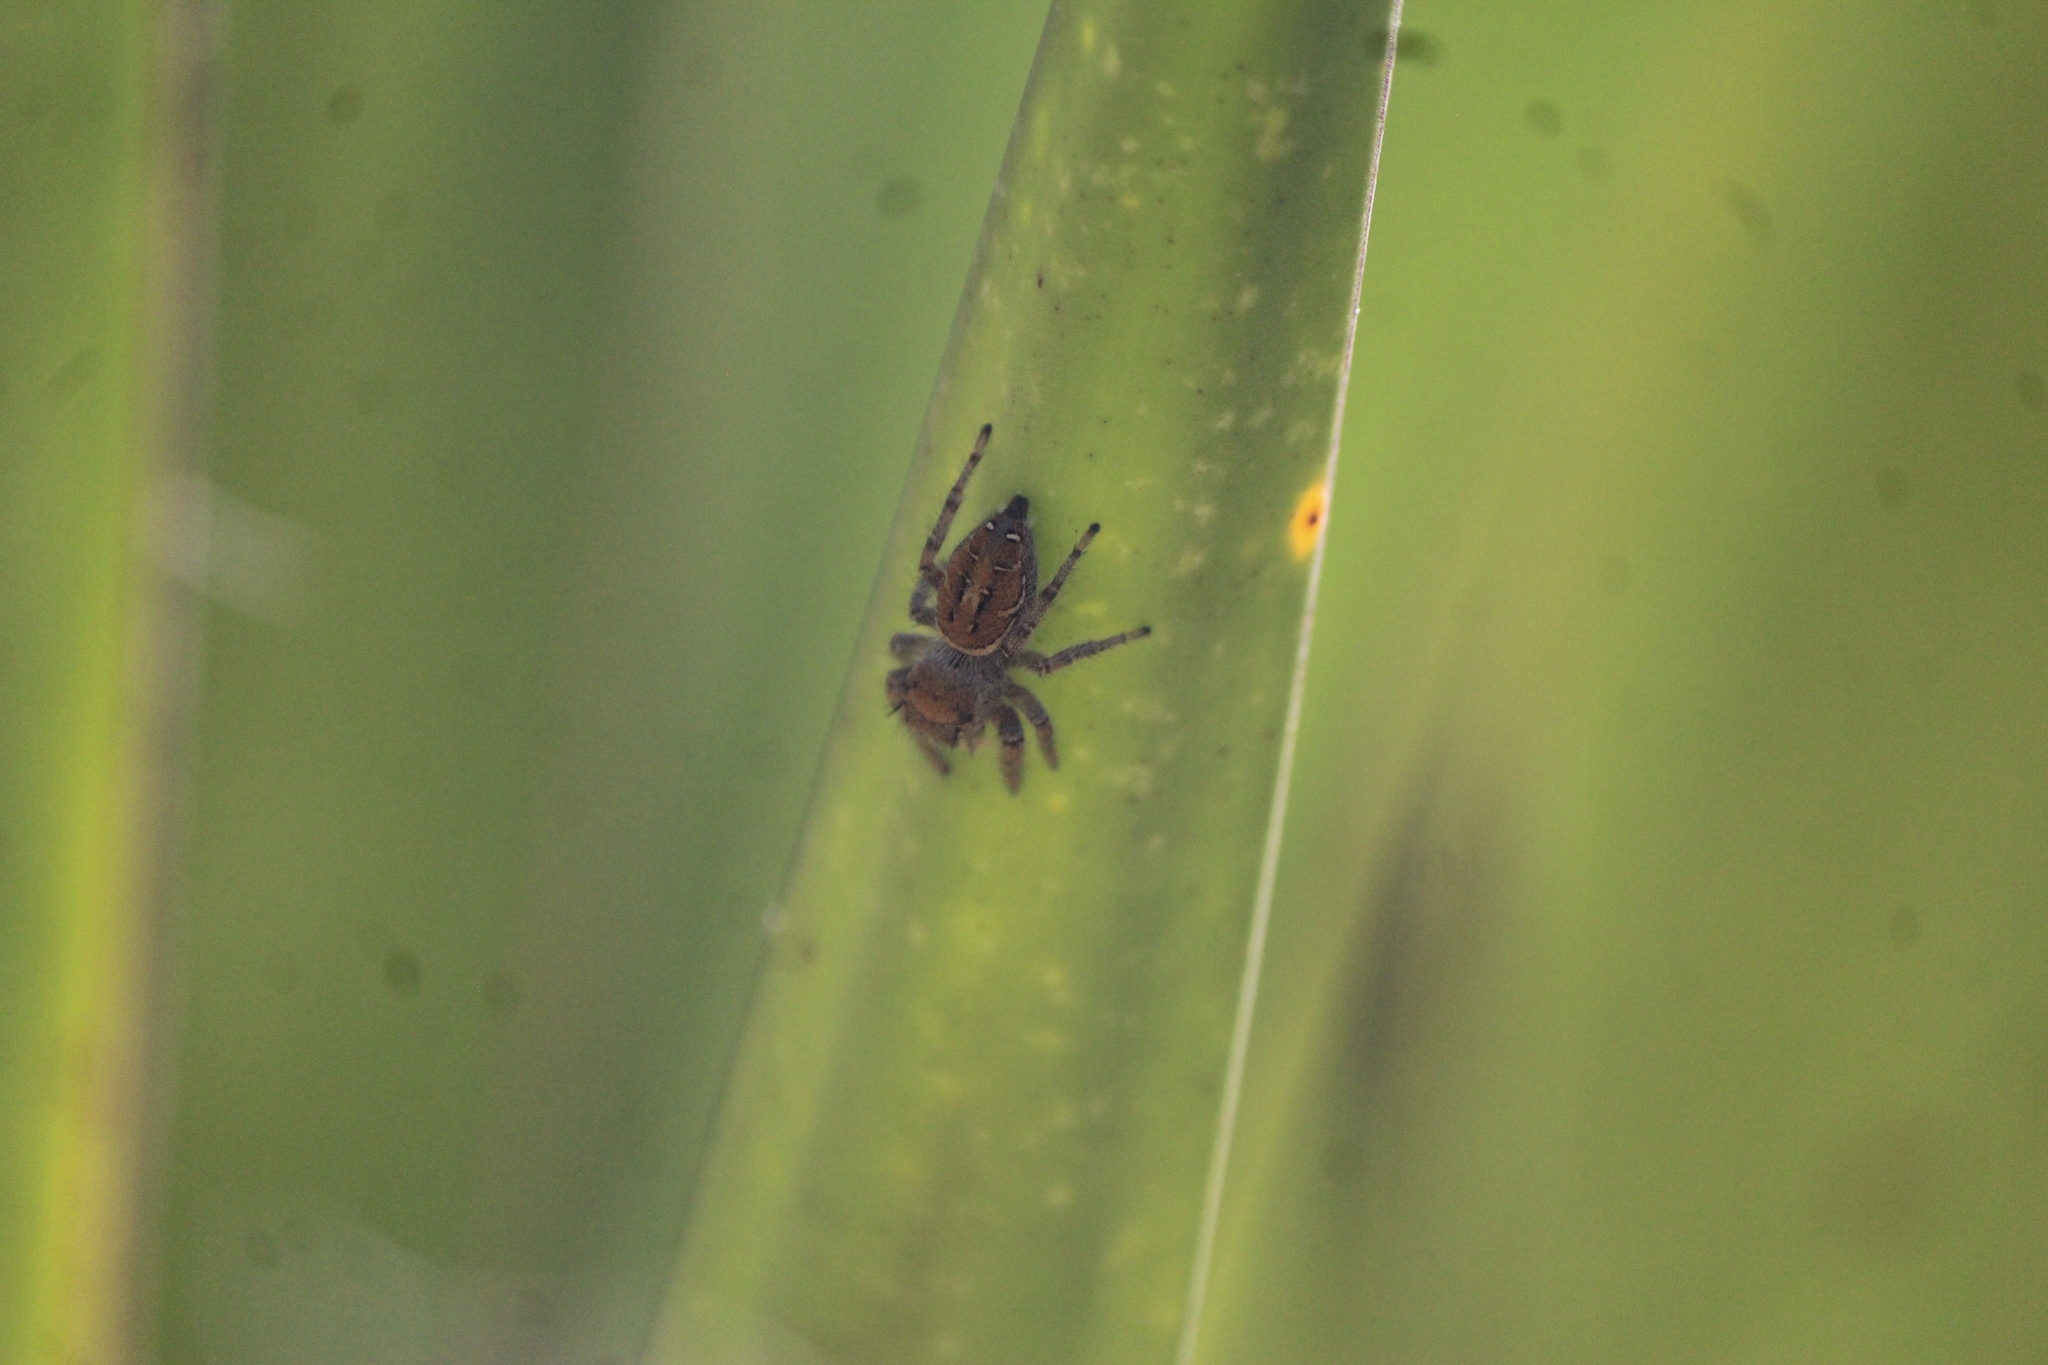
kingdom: Animalia
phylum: Arthropoda
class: Arachnida
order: Araneae
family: Salticidae
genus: Phidippus
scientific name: Phidippus arizonensis
